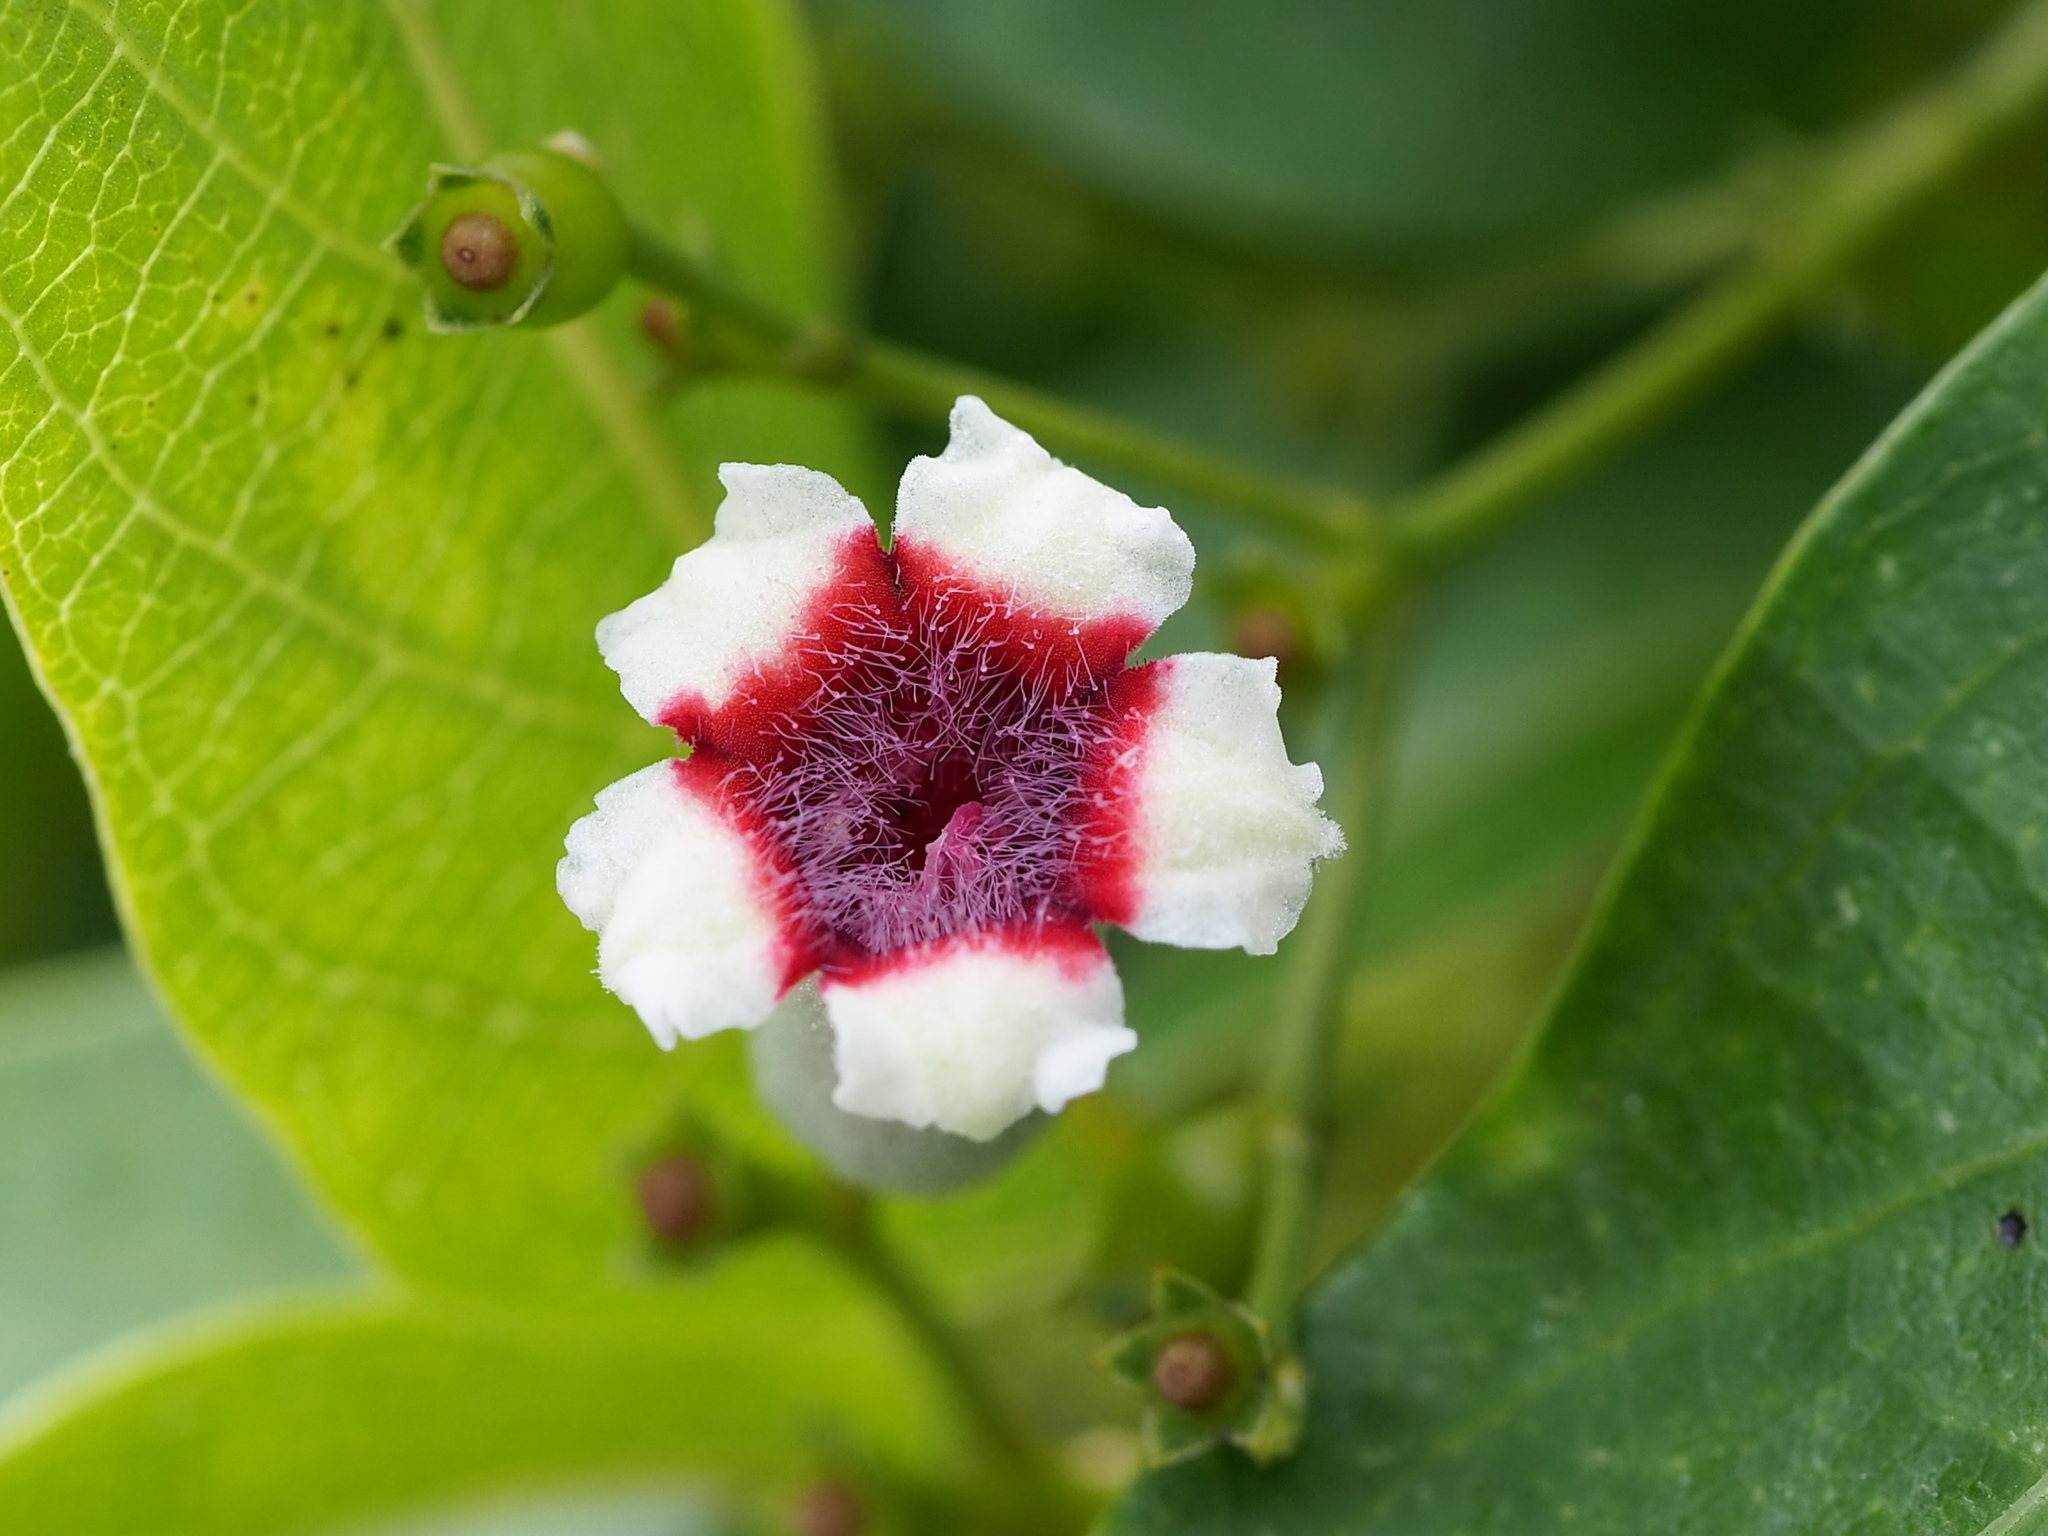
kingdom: Plantae
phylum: Tracheophyta
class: Magnoliopsida
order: Gentianales
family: Rubiaceae
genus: Paederia
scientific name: Paederia foetida
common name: Stinkvine
